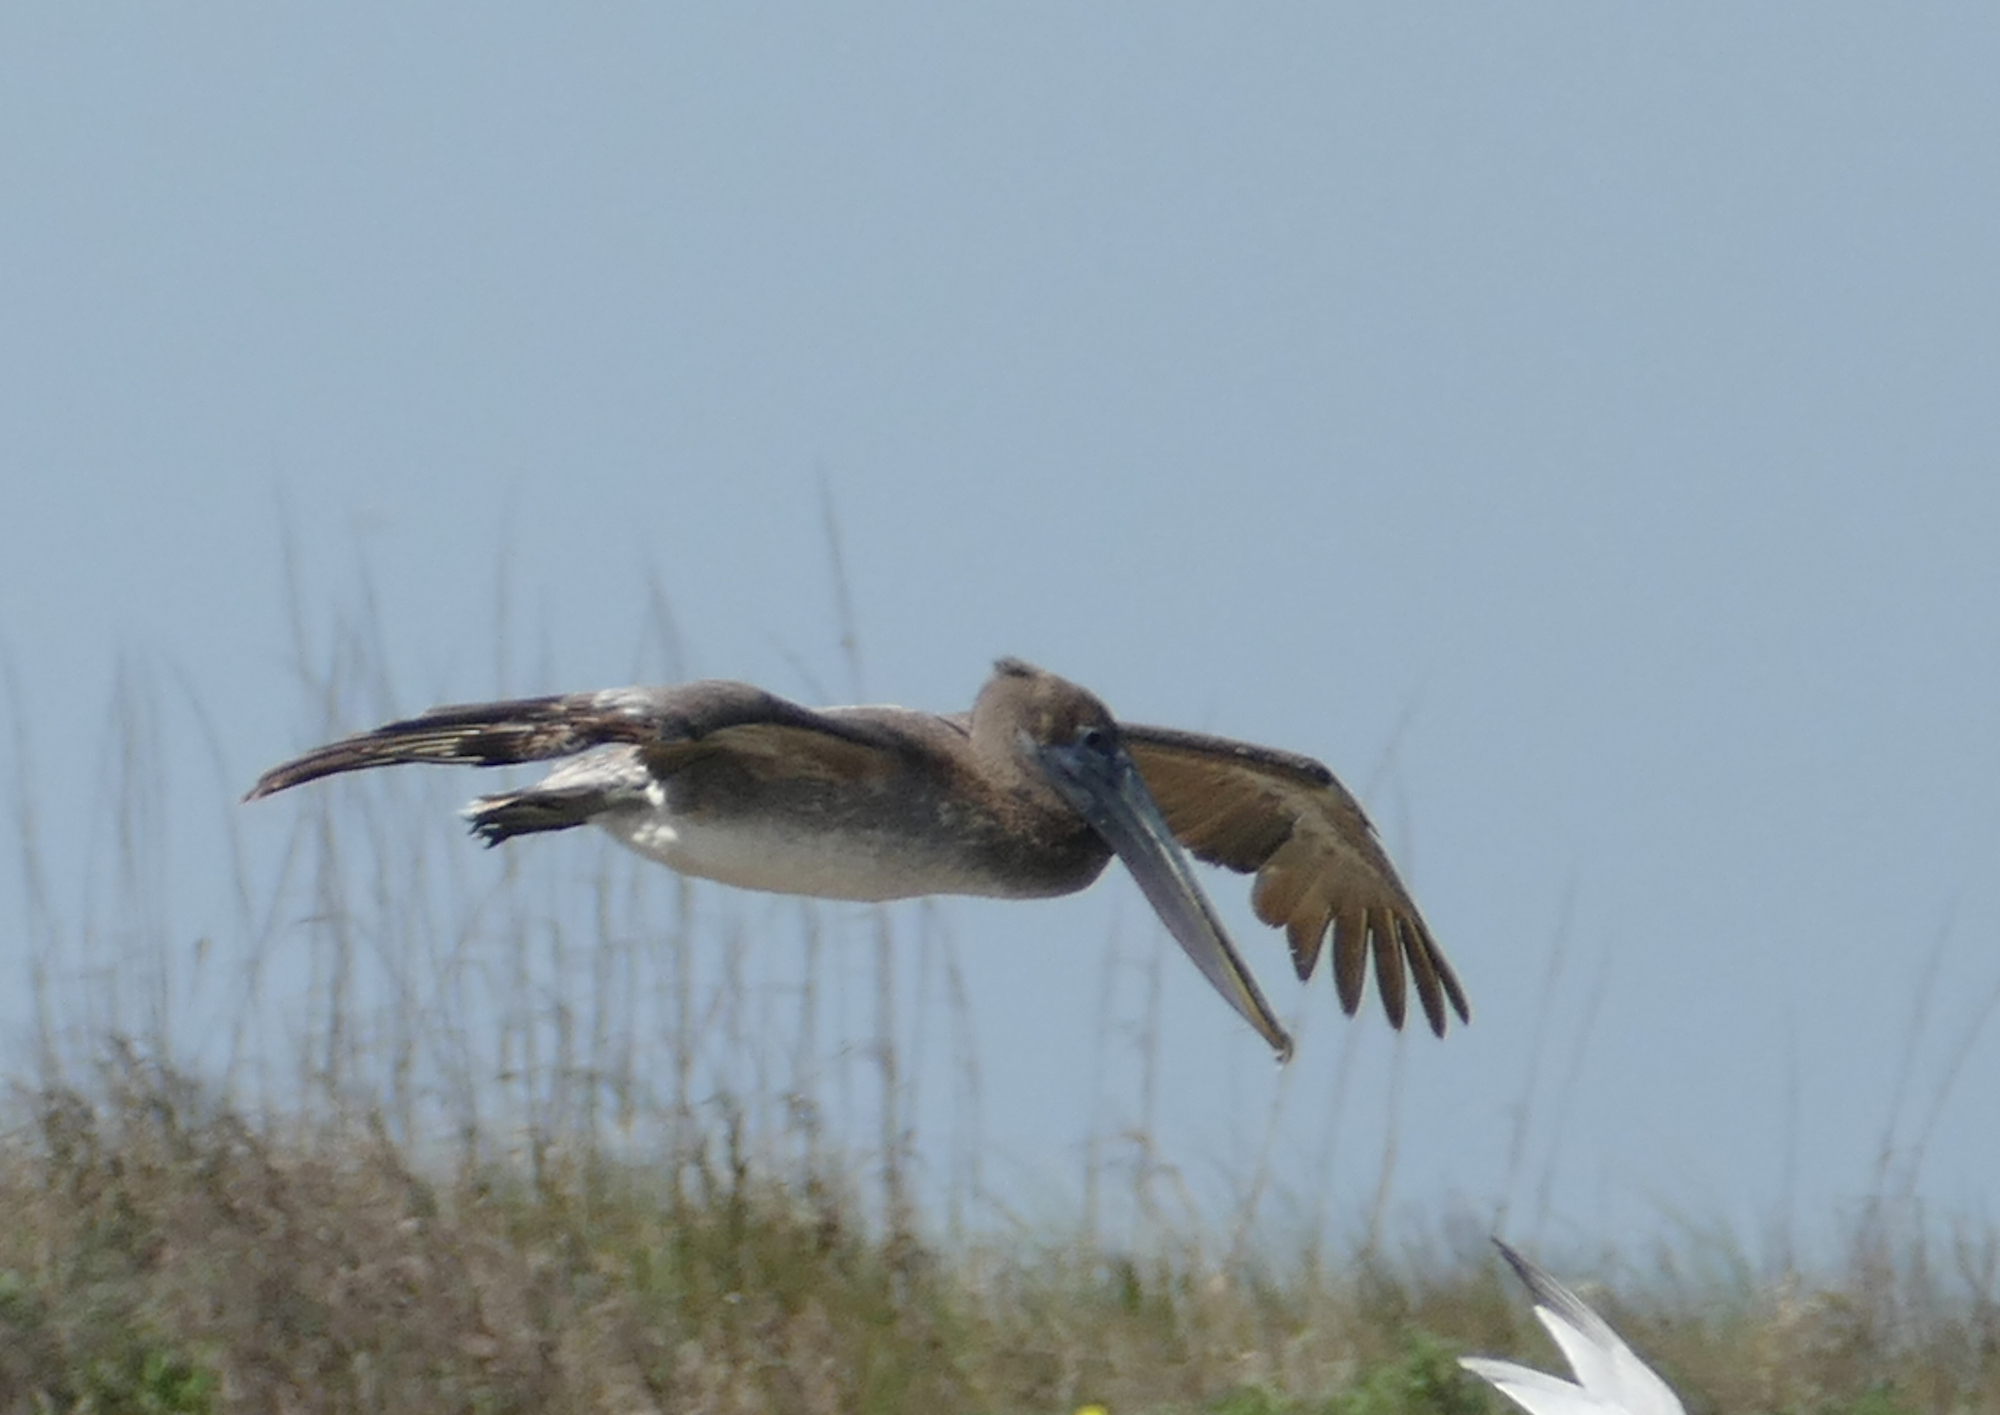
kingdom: Animalia
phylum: Chordata
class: Aves
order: Pelecaniformes
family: Pelecanidae
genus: Pelecanus
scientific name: Pelecanus occidentalis
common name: Brown pelican
